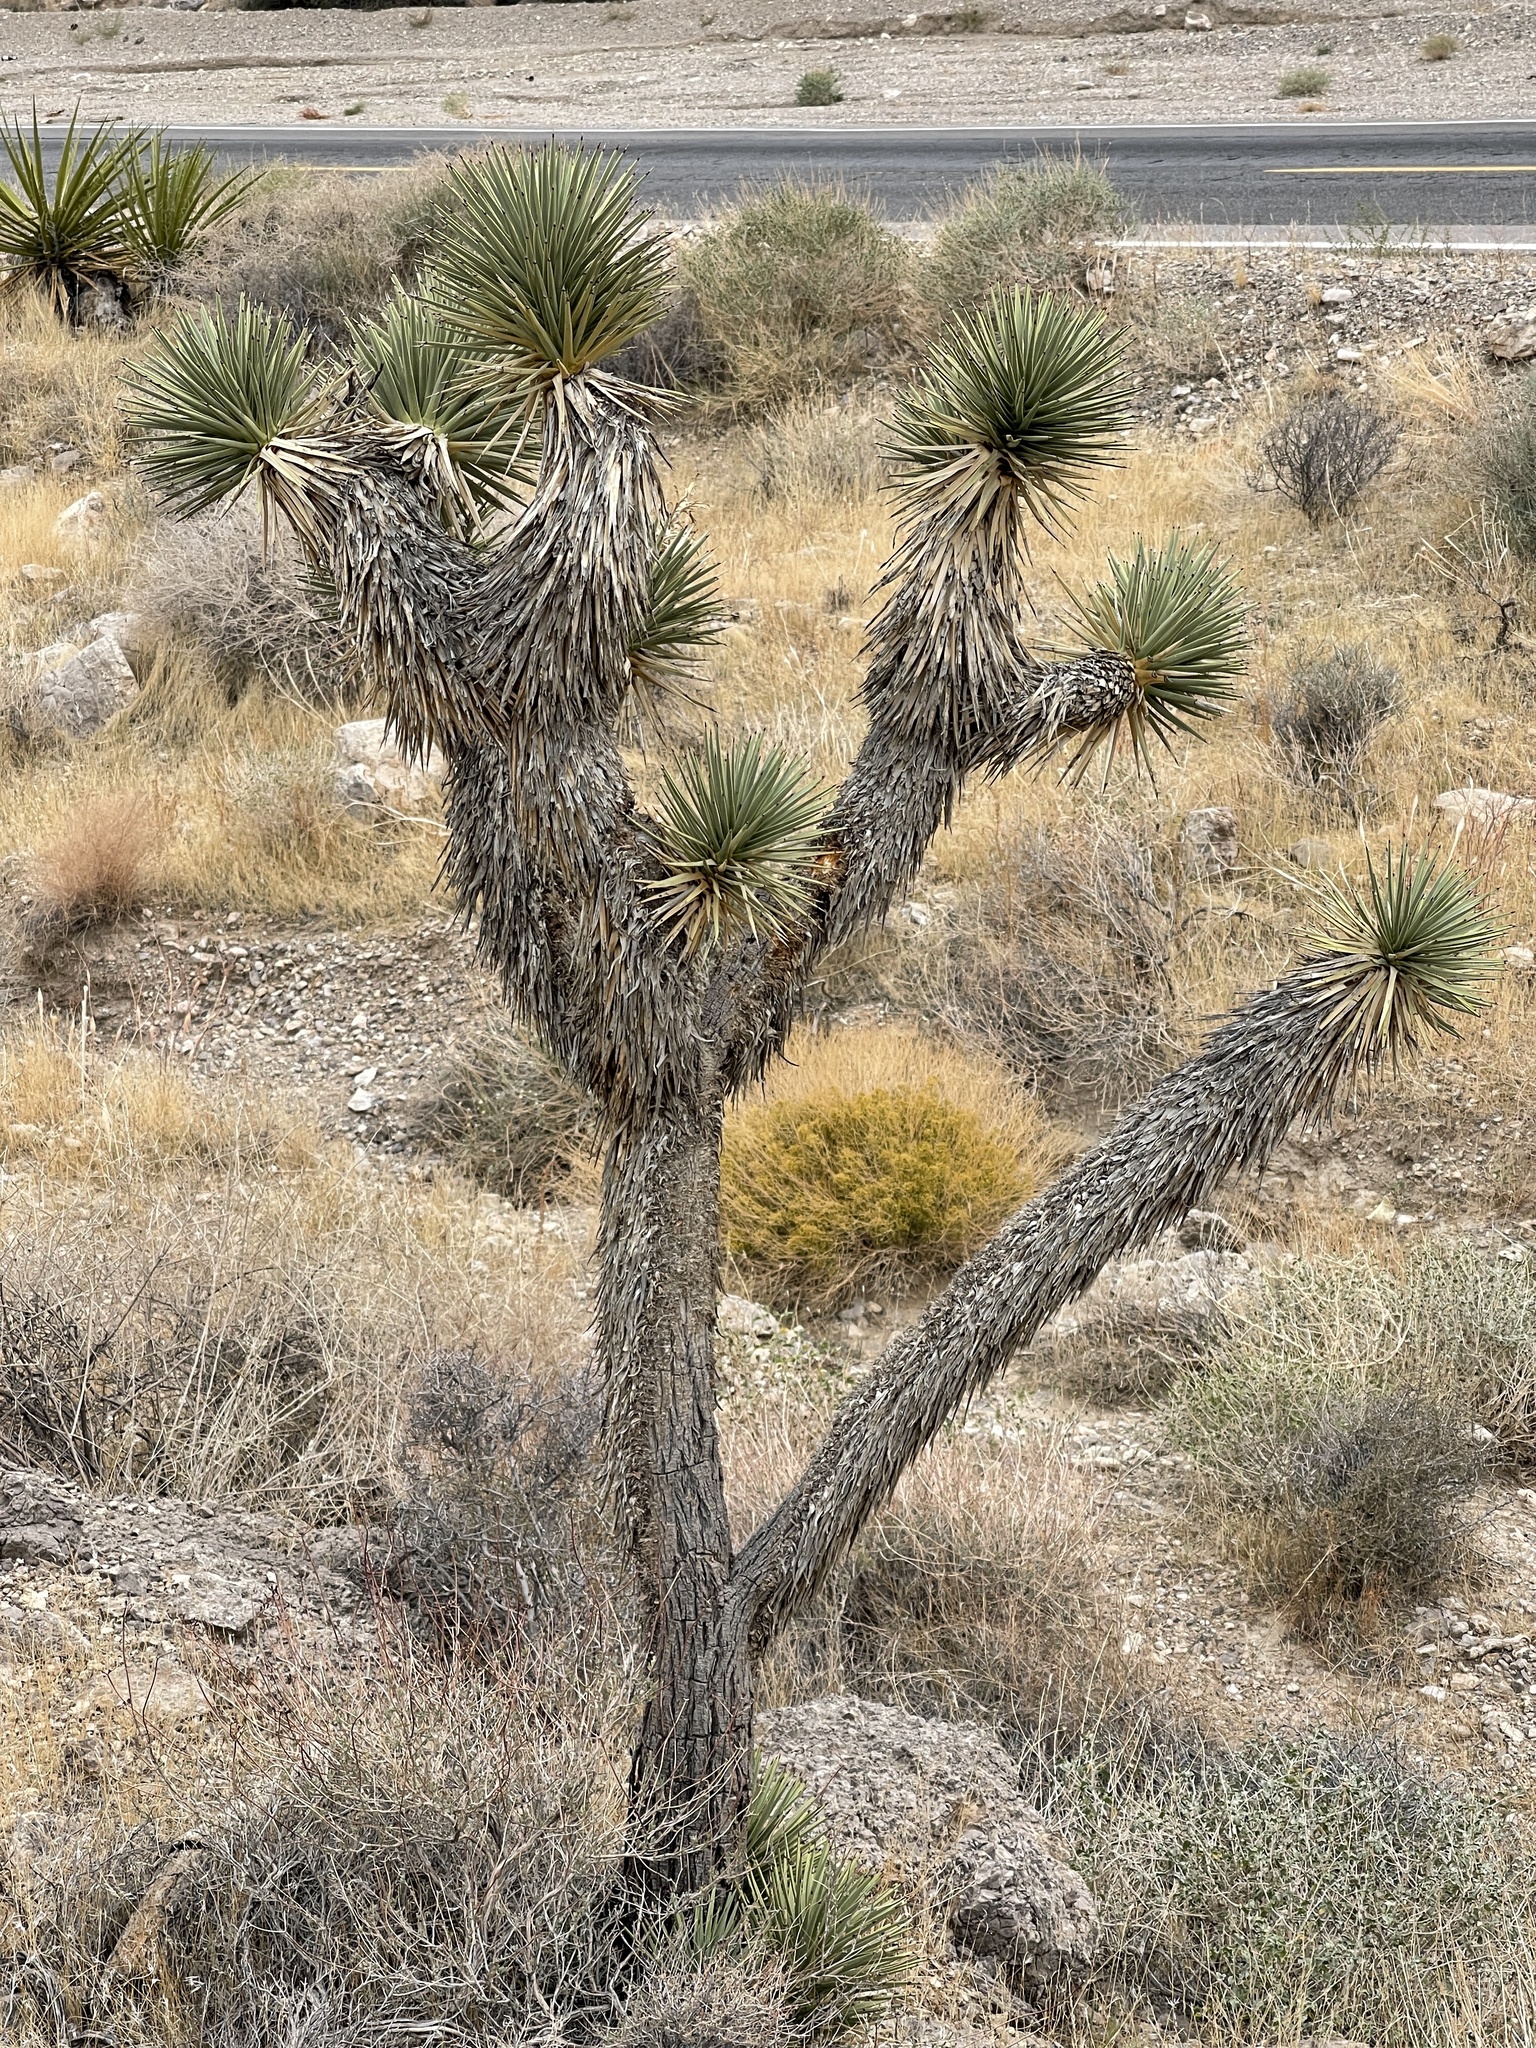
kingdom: Plantae
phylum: Tracheophyta
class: Liliopsida
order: Asparagales
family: Asparagaceae
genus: Yucca
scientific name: Yucca brevifolia
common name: Joshua tree
